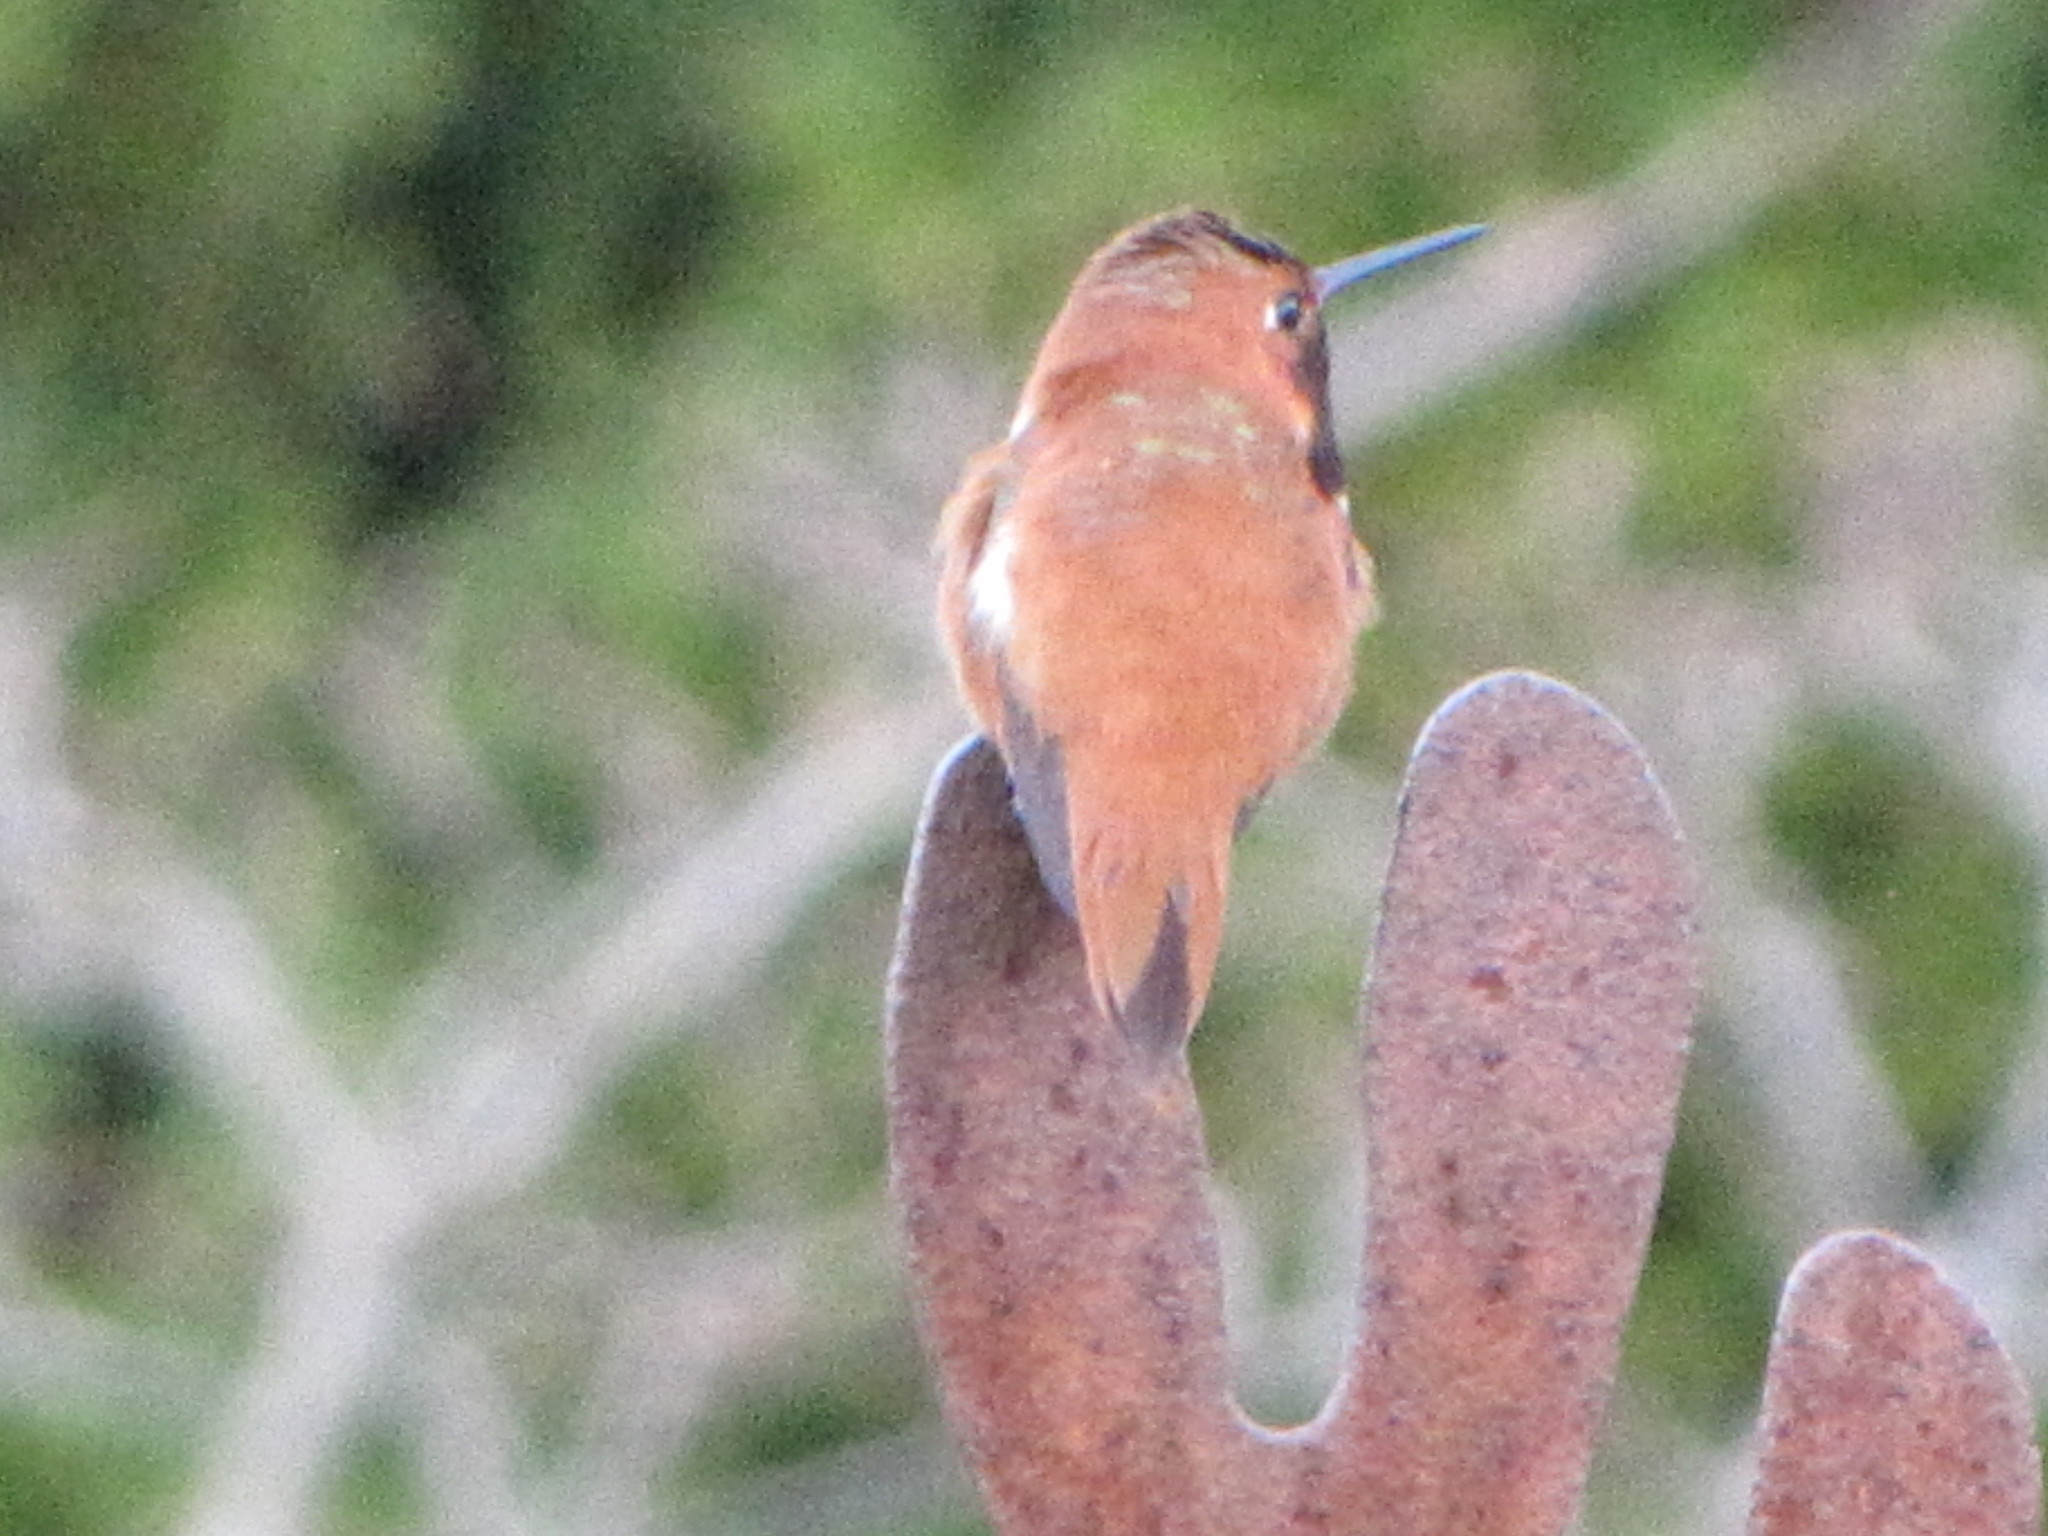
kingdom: Animalia
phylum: Chordata
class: Aves
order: Apodiformes
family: Trochilidae
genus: Selasphorus
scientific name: Selasphorus rufus
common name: Rufous hummingbird
